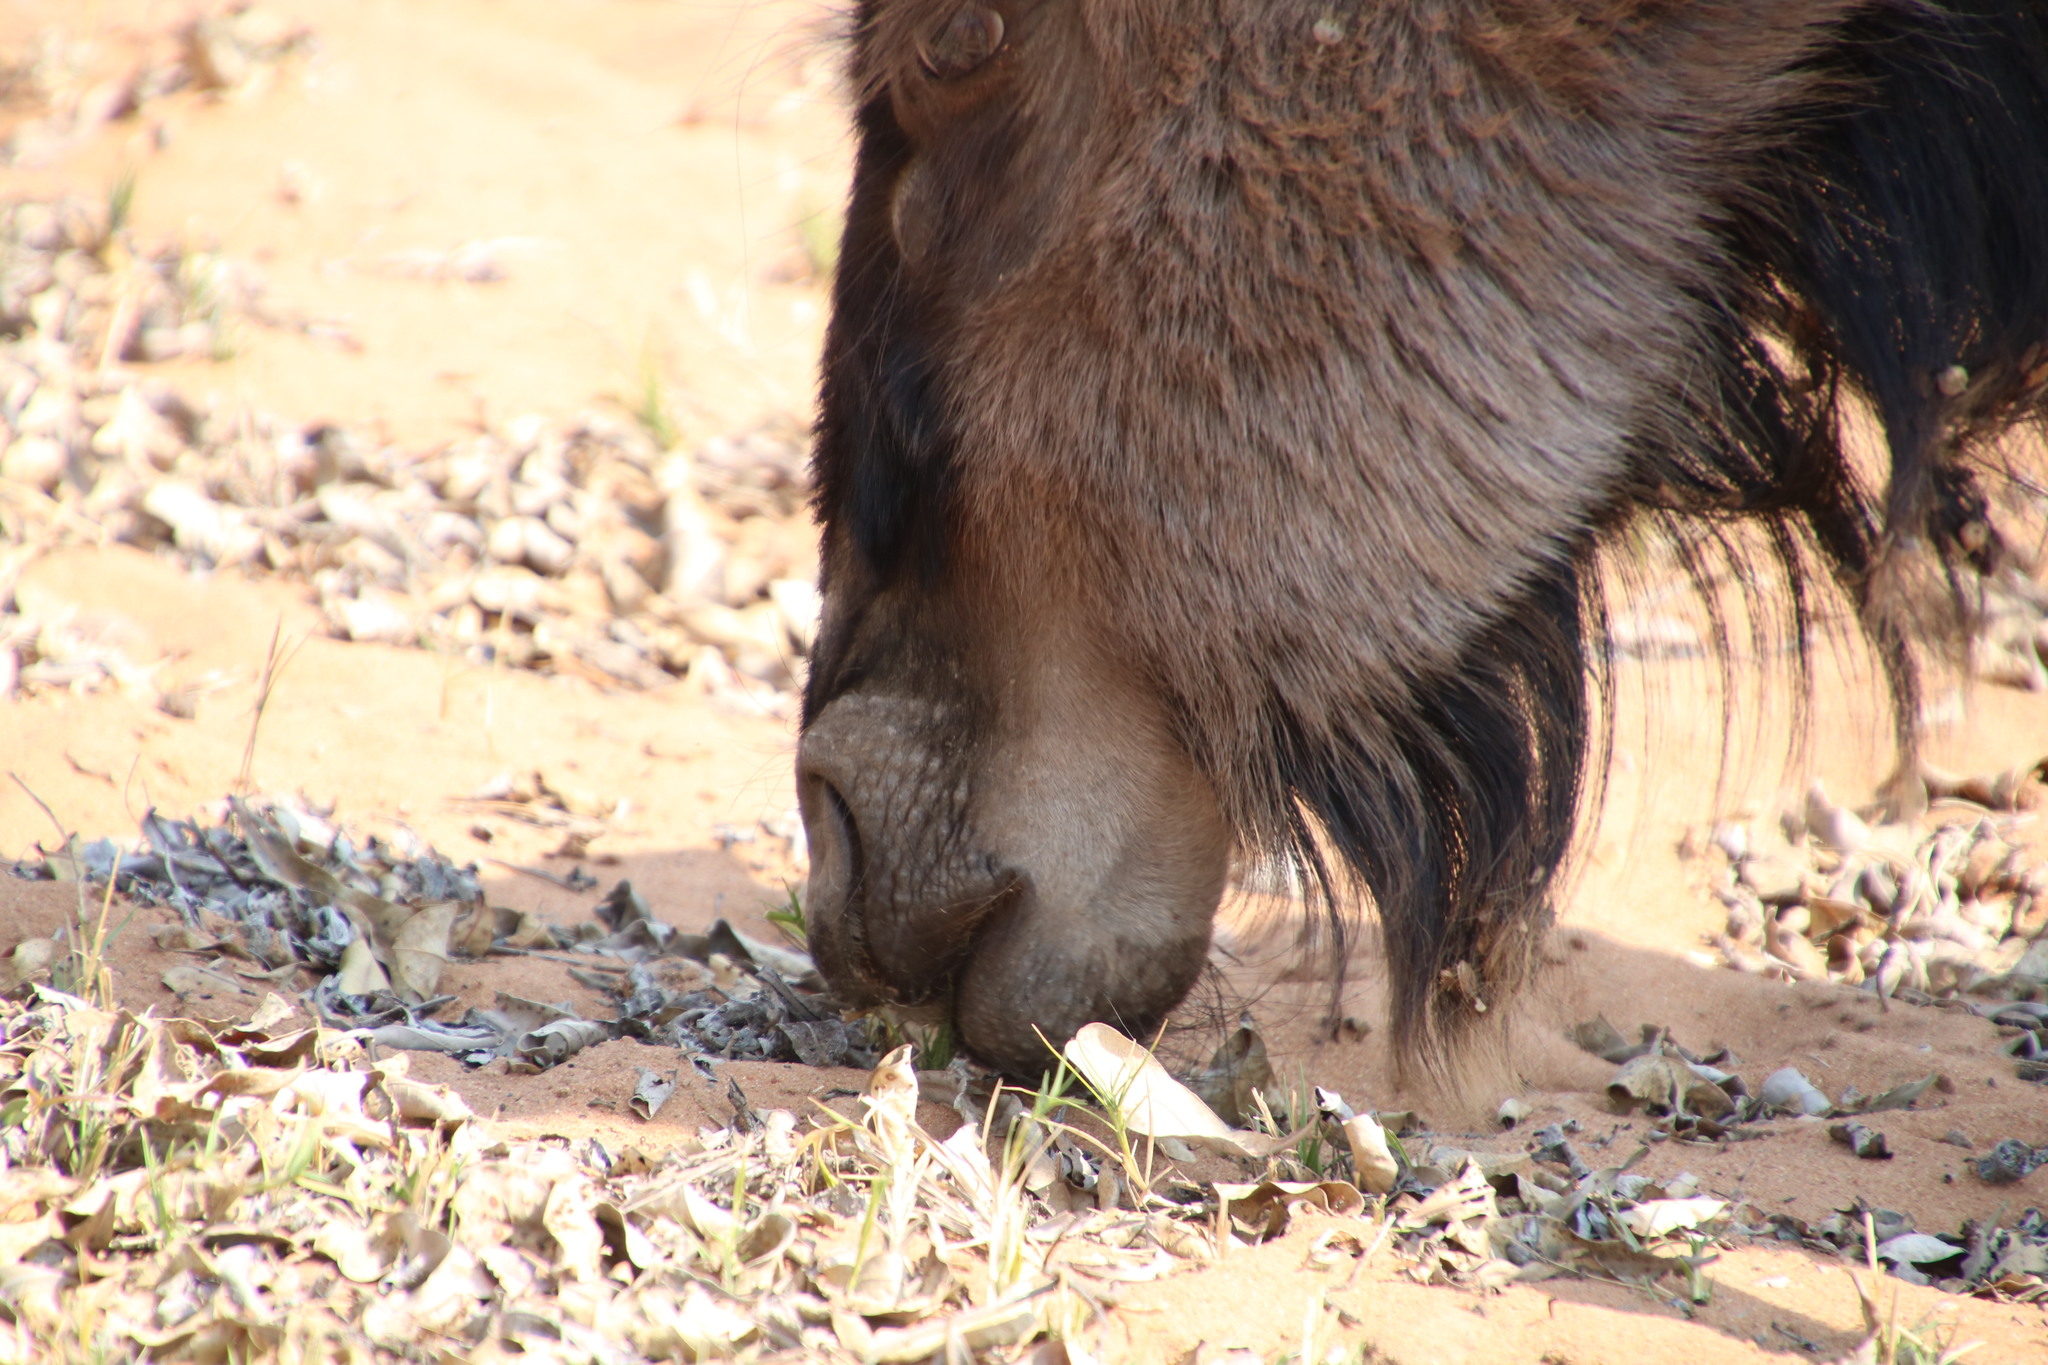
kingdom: Animalia
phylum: Chordata
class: Mammalia
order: Artiodactyla
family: Bovidae
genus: Connochaetes
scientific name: Connochaetes taurinus
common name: Blue wildebeest
